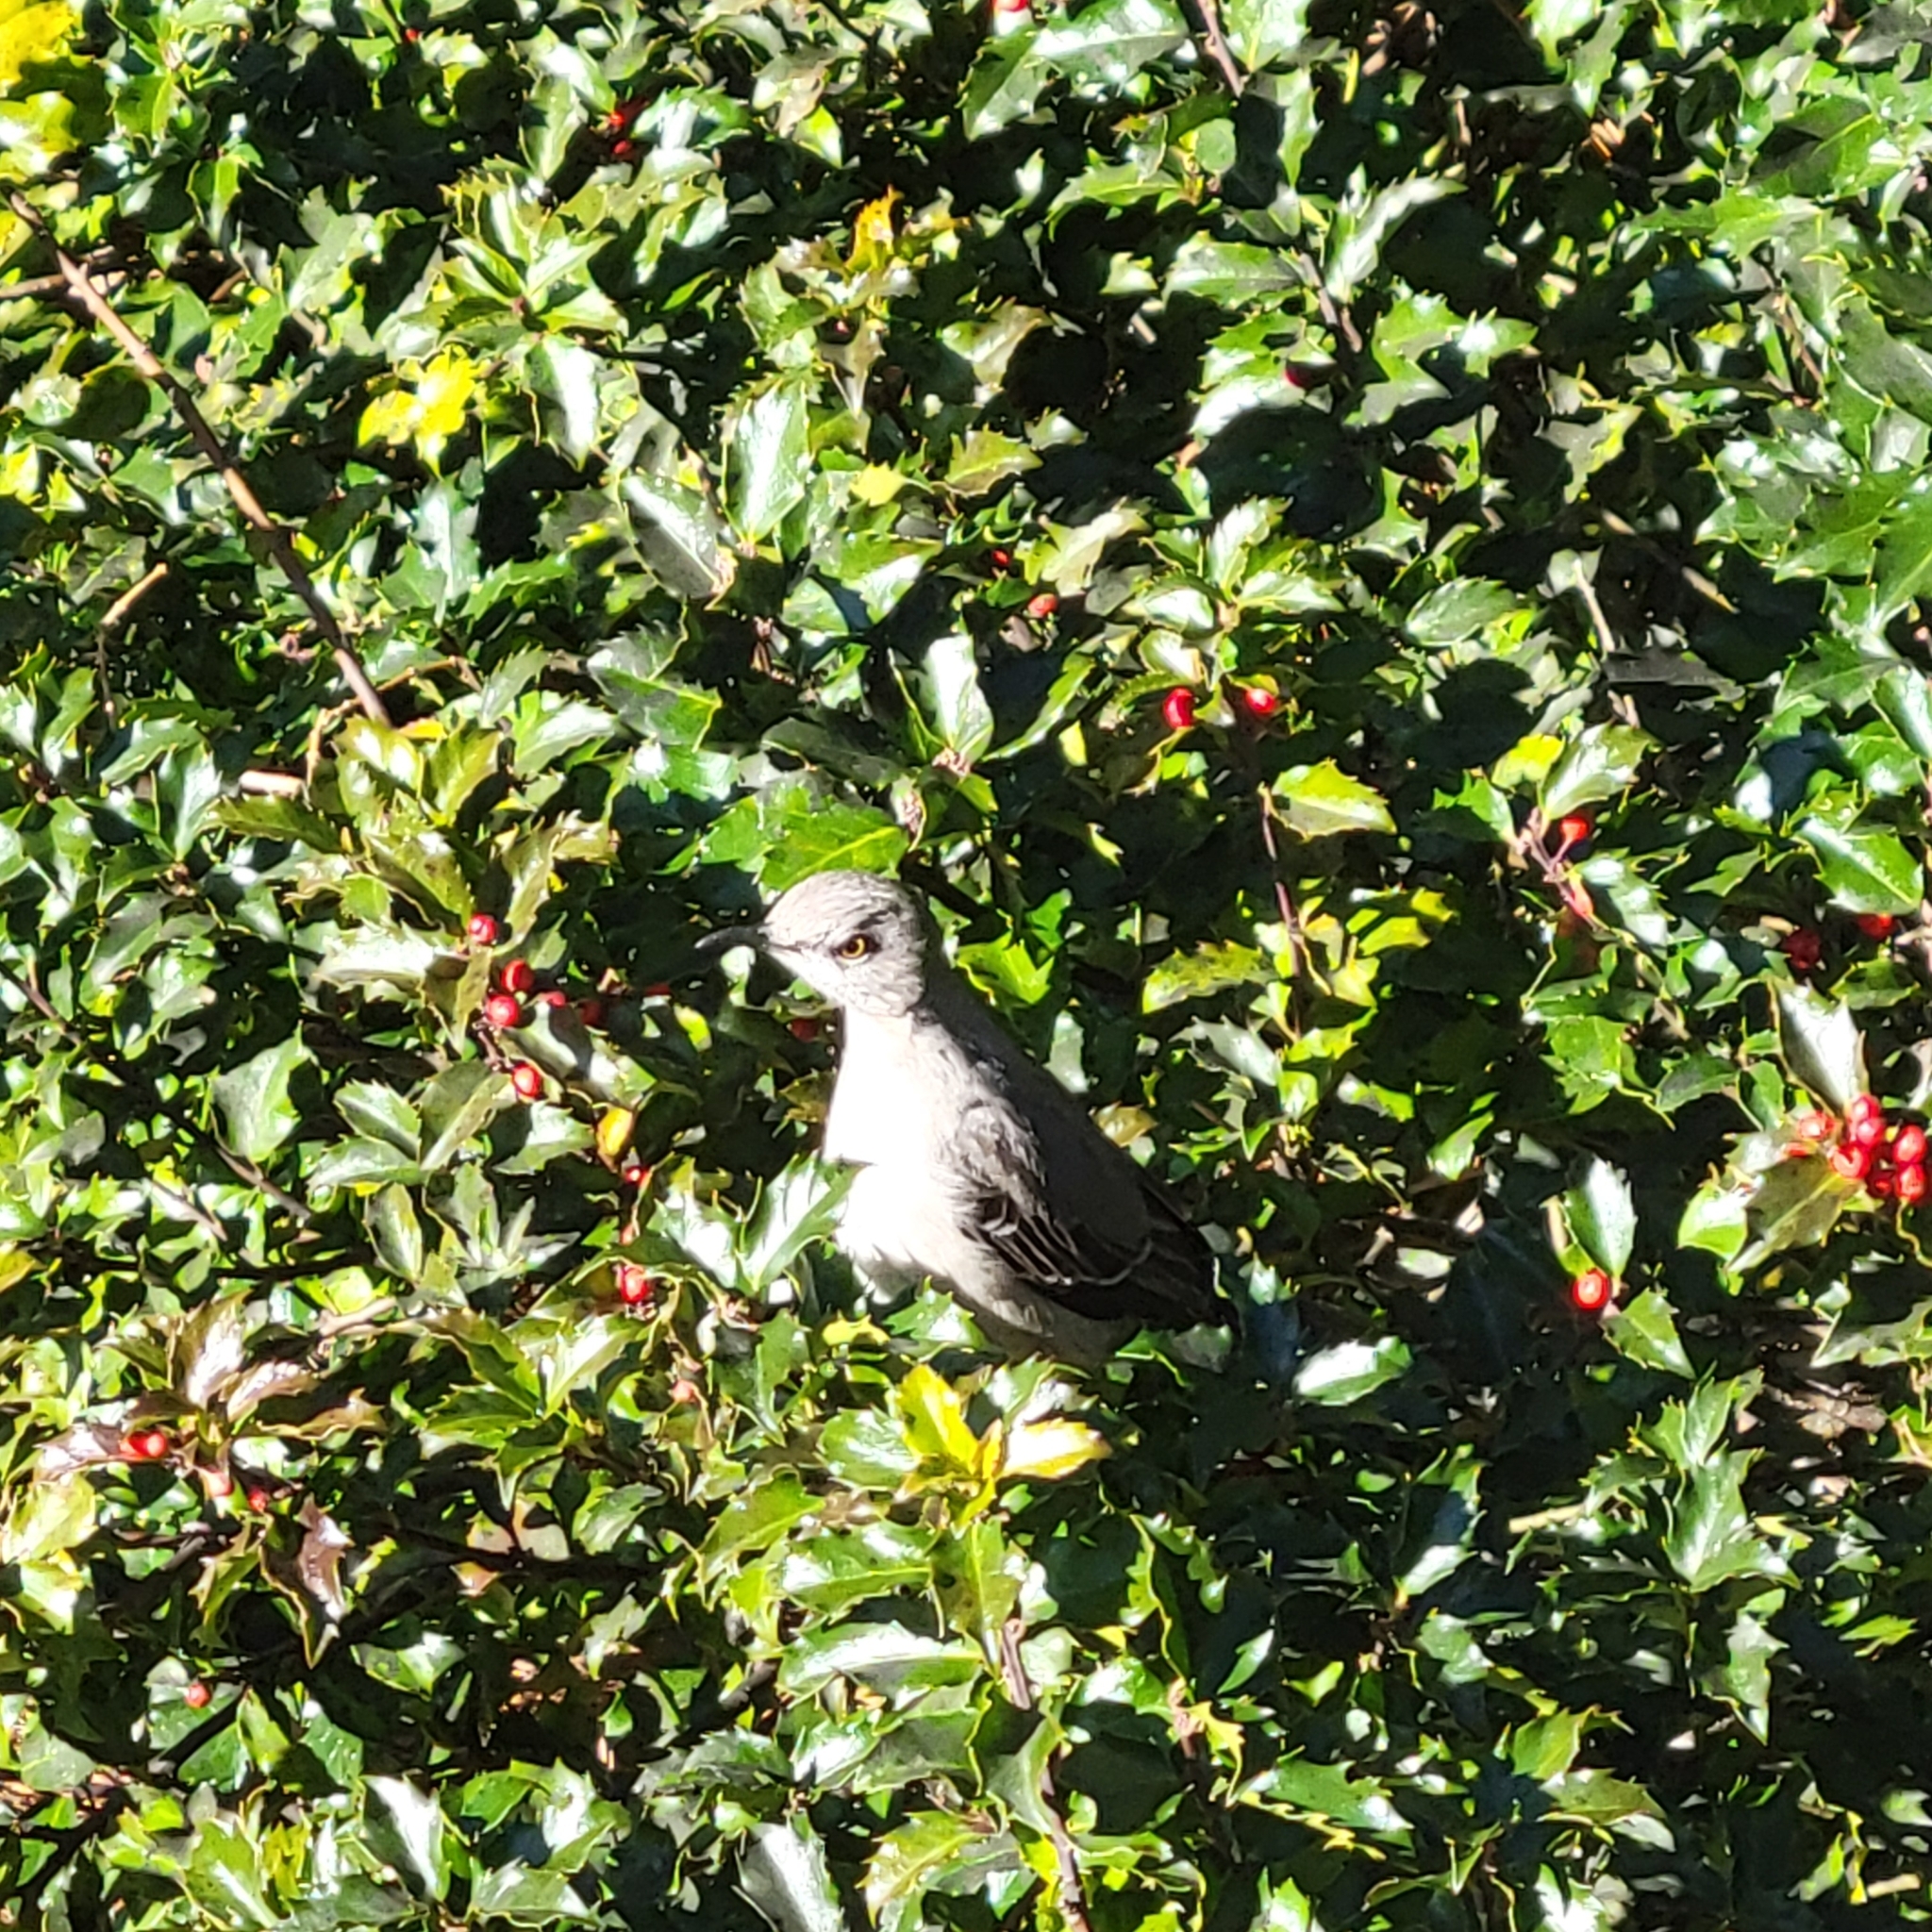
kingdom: Animalia
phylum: Chordata
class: Aves
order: Passeriformes
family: Mimidae
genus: Mimus
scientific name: Mimus polyglottos
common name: Northern mockingbird
